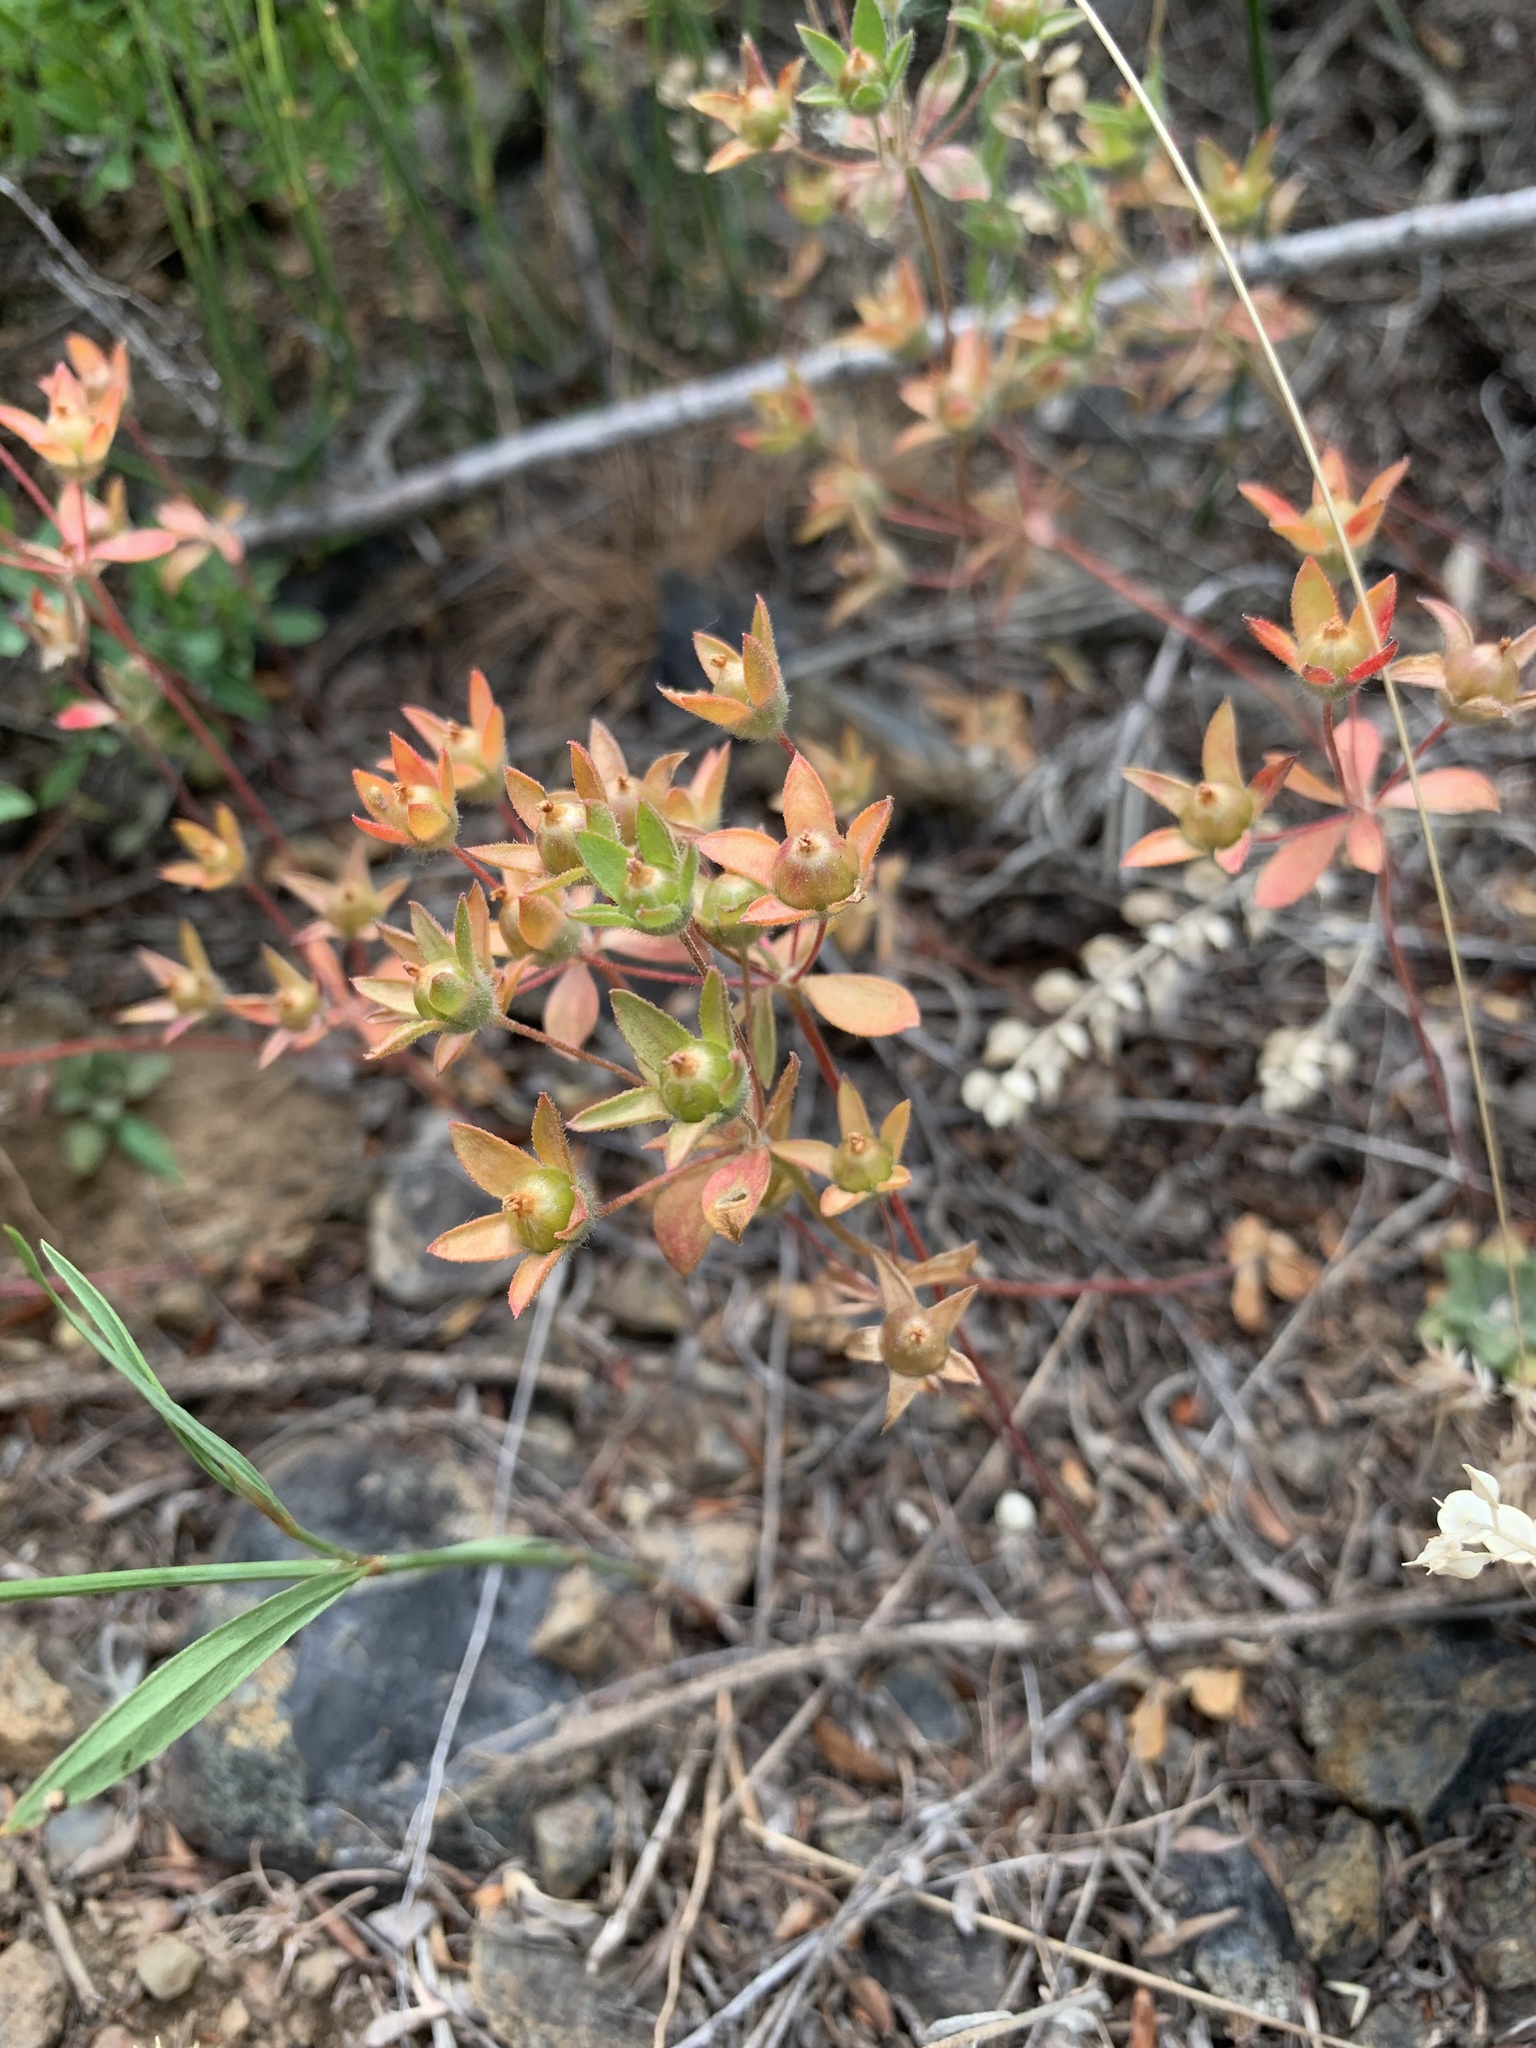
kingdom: Plantae
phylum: Tracheophyta
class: Magnoliopsida
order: Ericales
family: Primulaceae
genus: Androsace
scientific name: Androsace maxima
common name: Annual androsace
